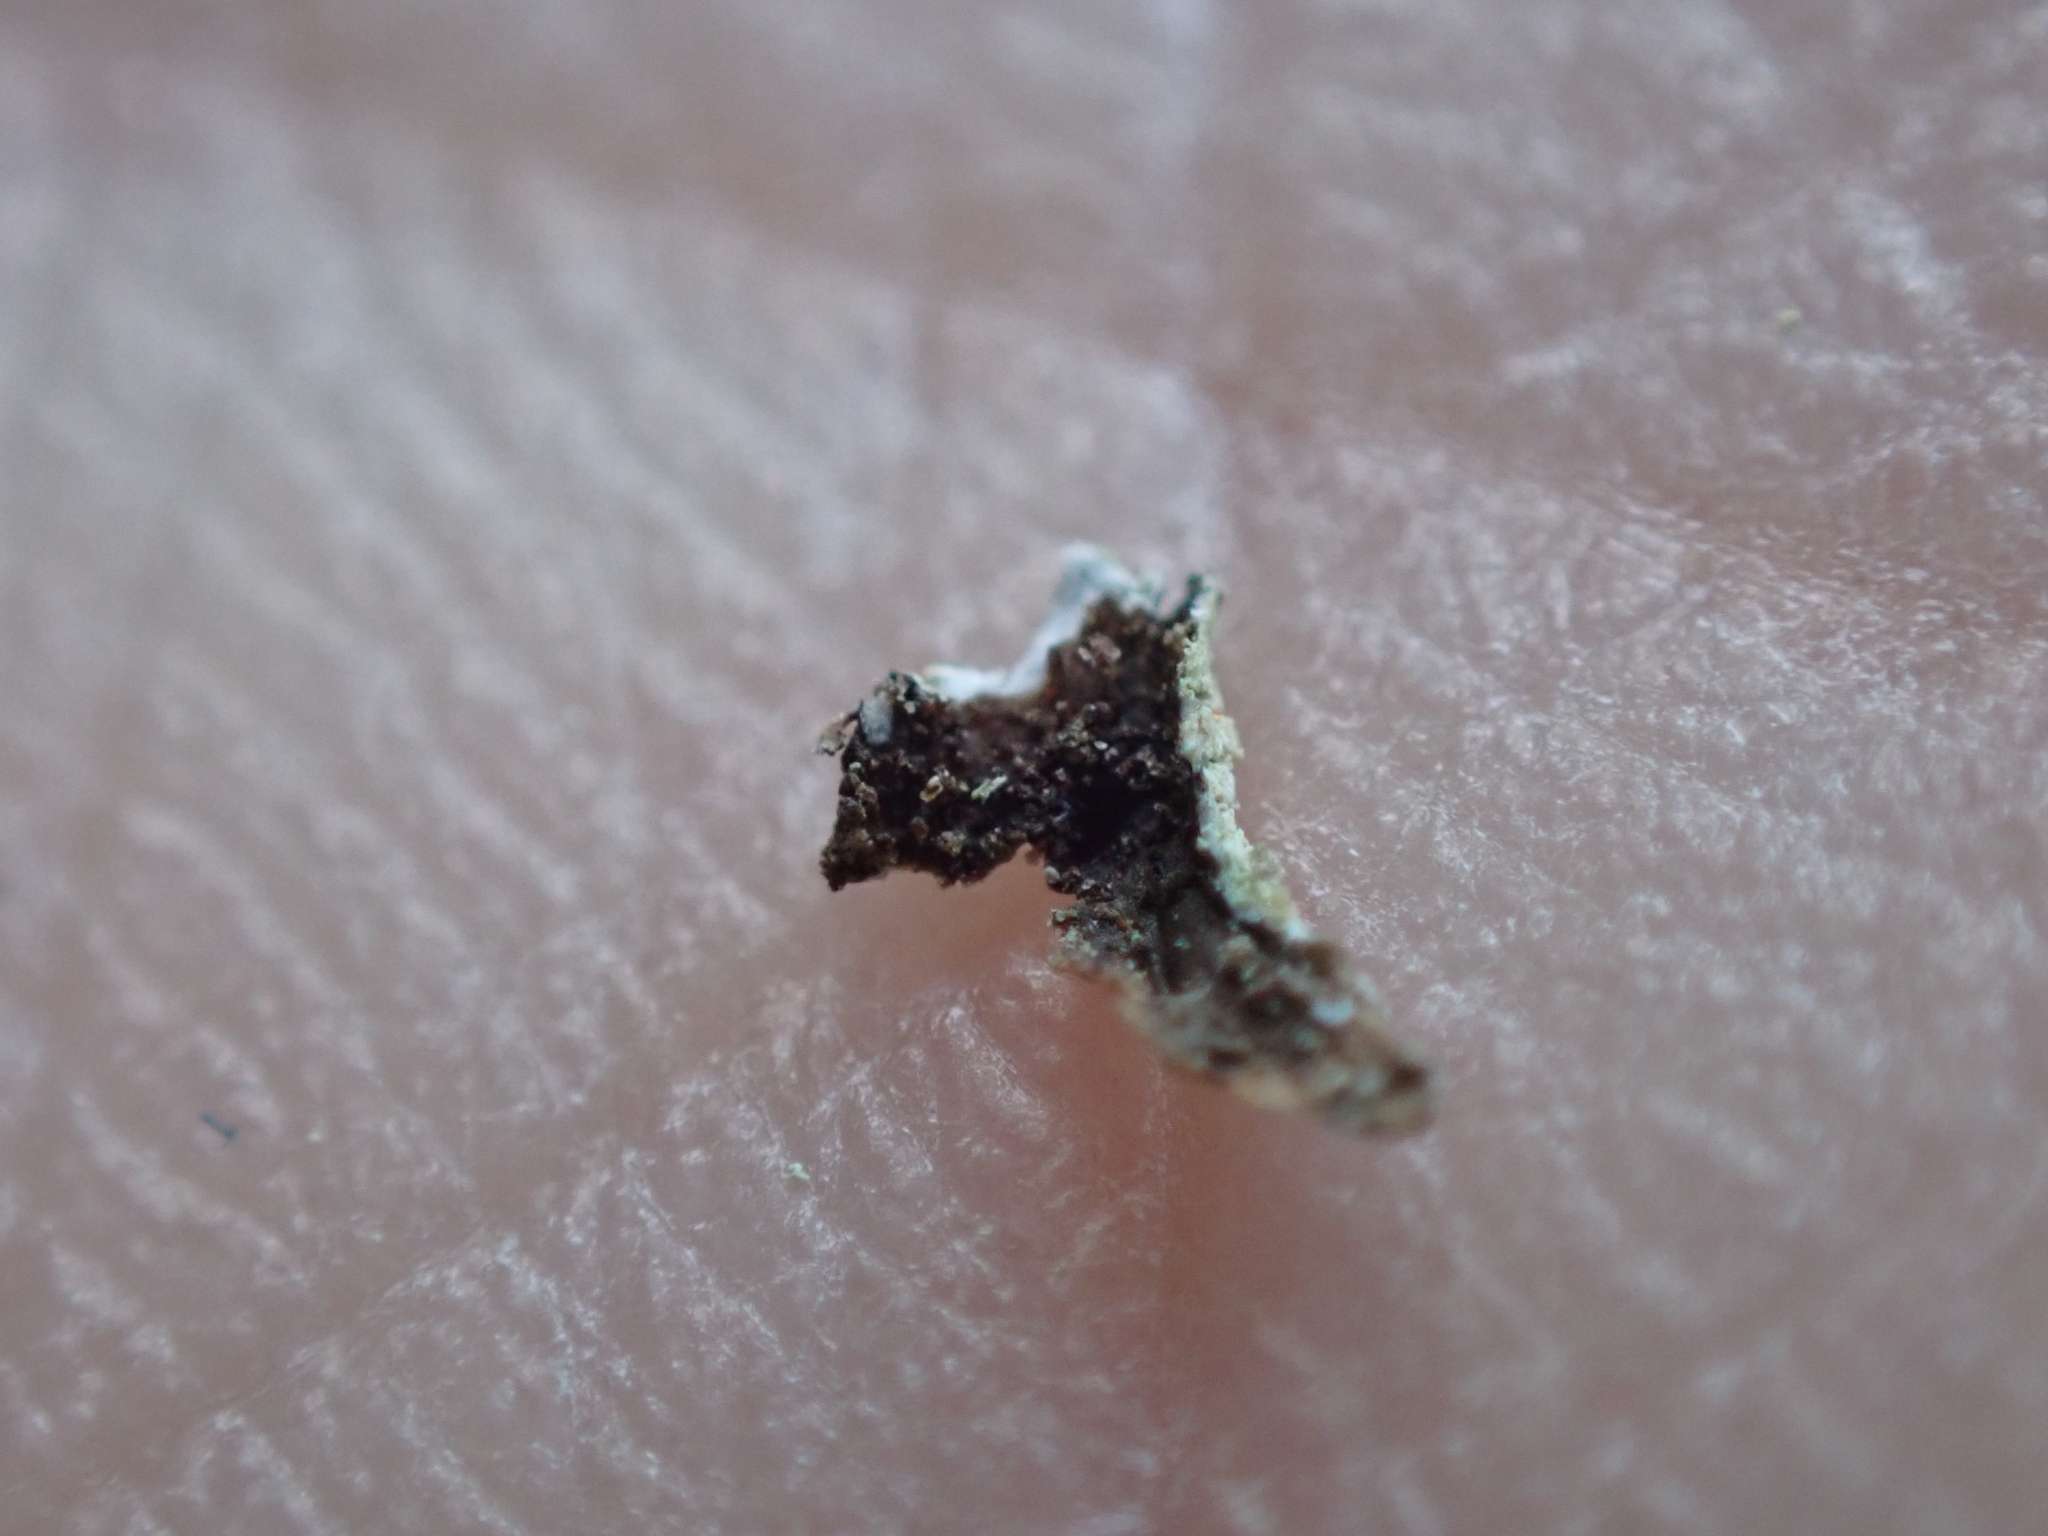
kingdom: Fungi
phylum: Ascomycota
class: Lecanoromycetes
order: Lecanorales
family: Parmeliaceae
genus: Parmeliopsis
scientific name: Parmeliopsis ambigua
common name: Green starburst lichen
